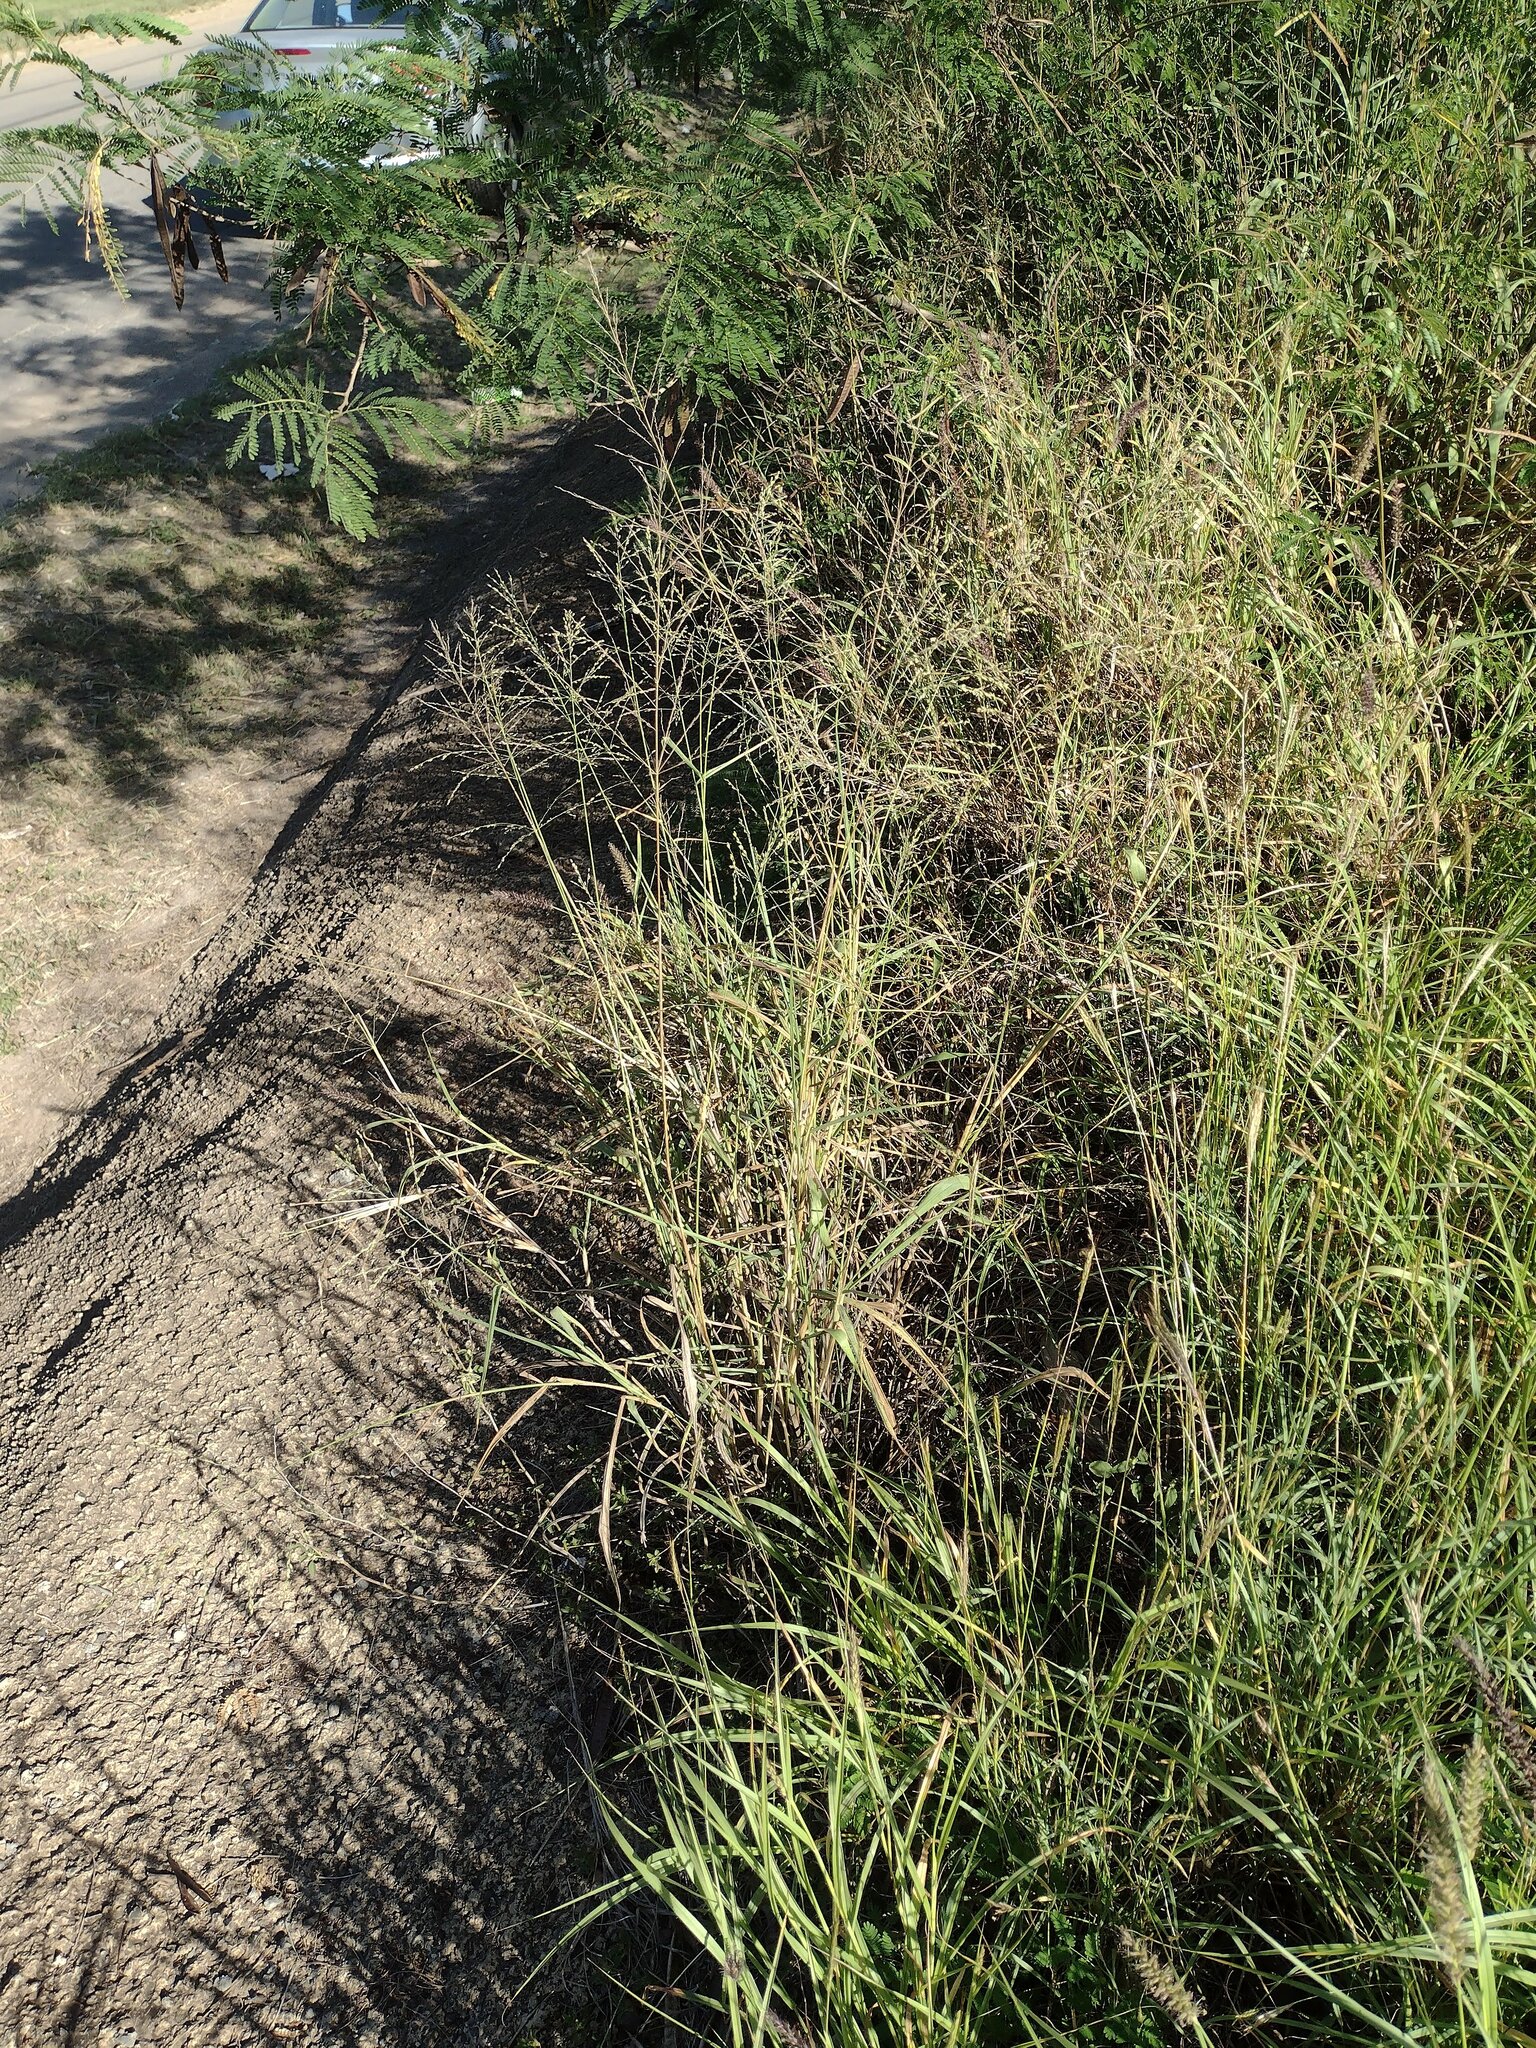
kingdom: Plantae
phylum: Tracheophyta
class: Liliopsida
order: Poales
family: Poaceae
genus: Megathyrsus
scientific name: Megathyrsus maximus
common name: Guineagrass
